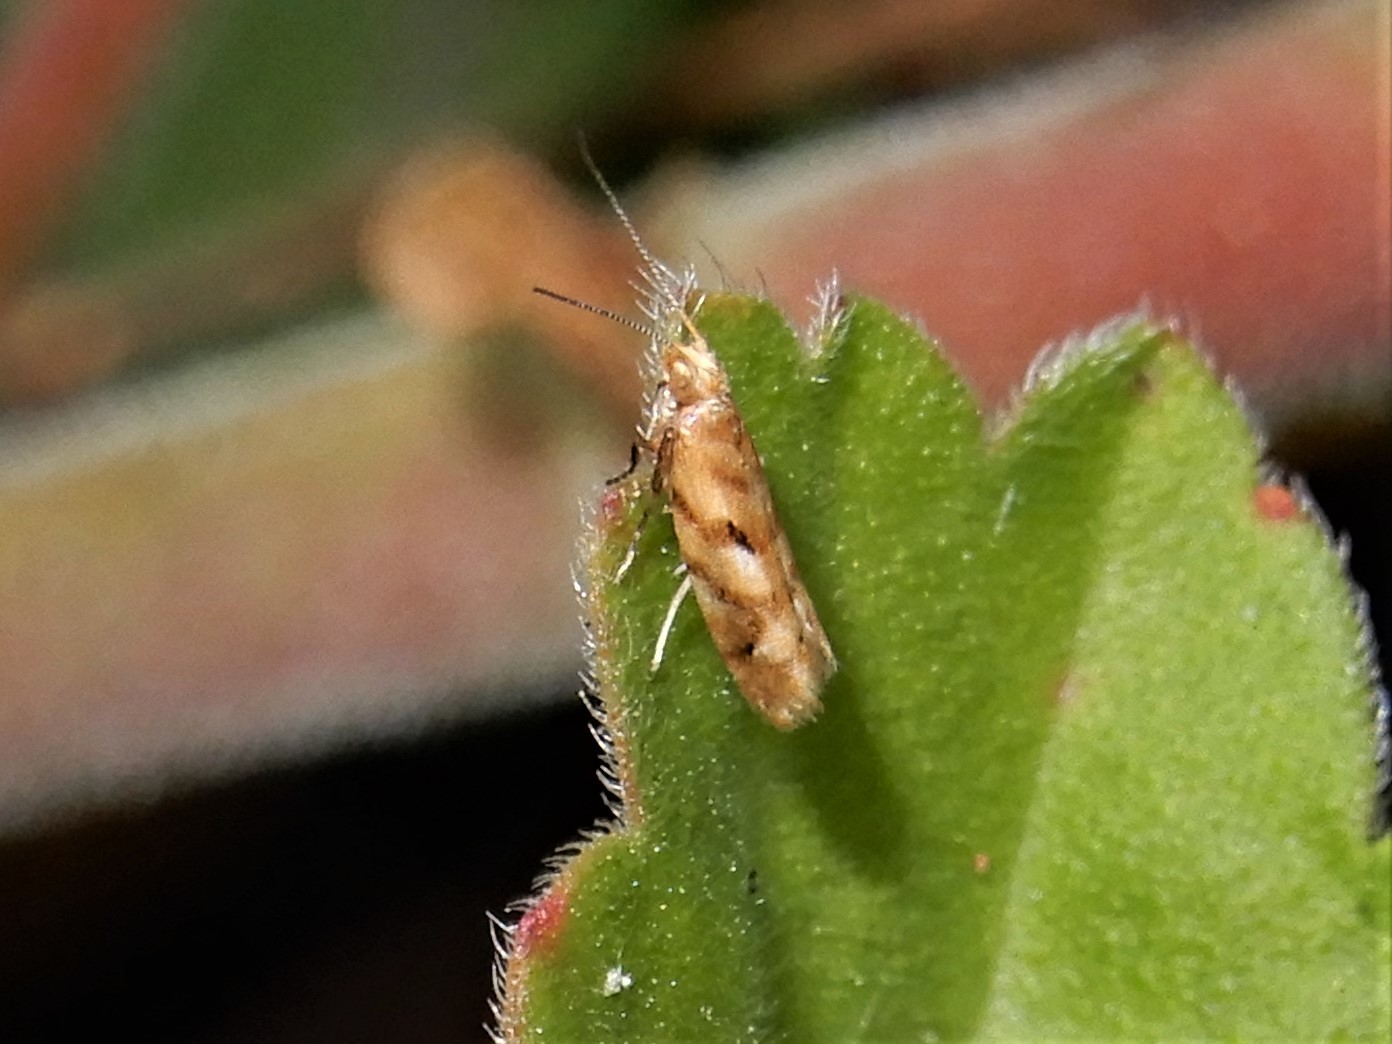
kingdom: Animalia
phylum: Arthropoda
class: Insecta
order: Lepidoptera
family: Glyphipterigidae
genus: Chrysorthenches
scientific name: Chrysorthenches virgata
